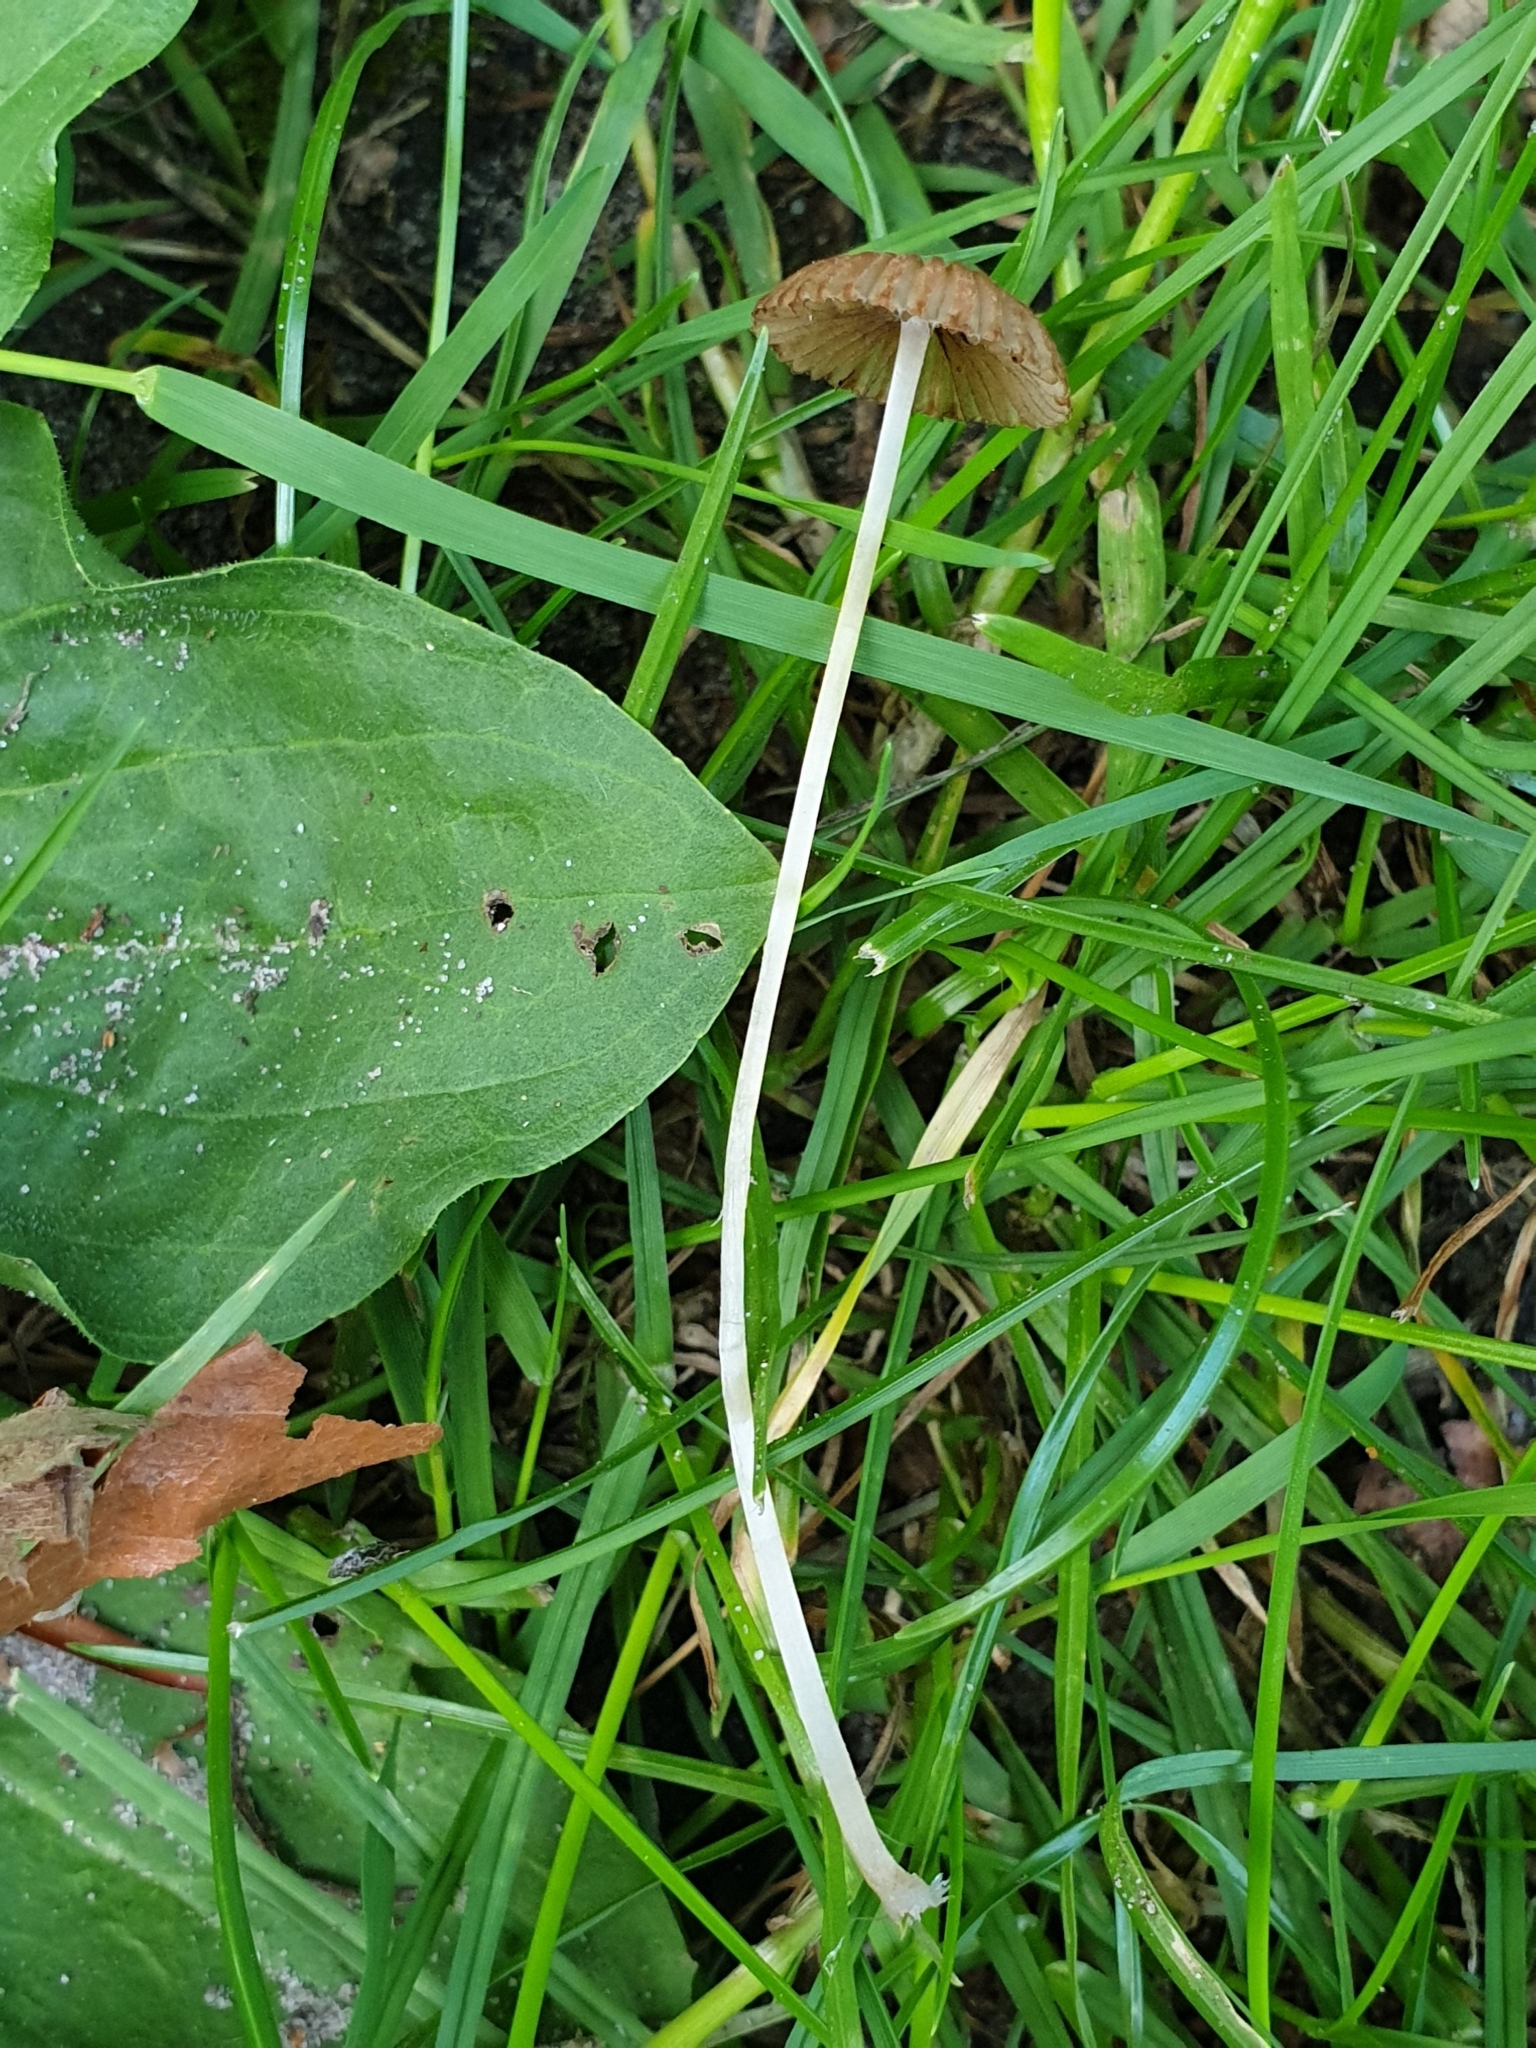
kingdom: Fungi
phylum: Basidiomycota
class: Agaricomycetes
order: Agaricales
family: Psathyrellaceae
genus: Parasola
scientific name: Parasola auricoma
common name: Goldenhaired inkcap
